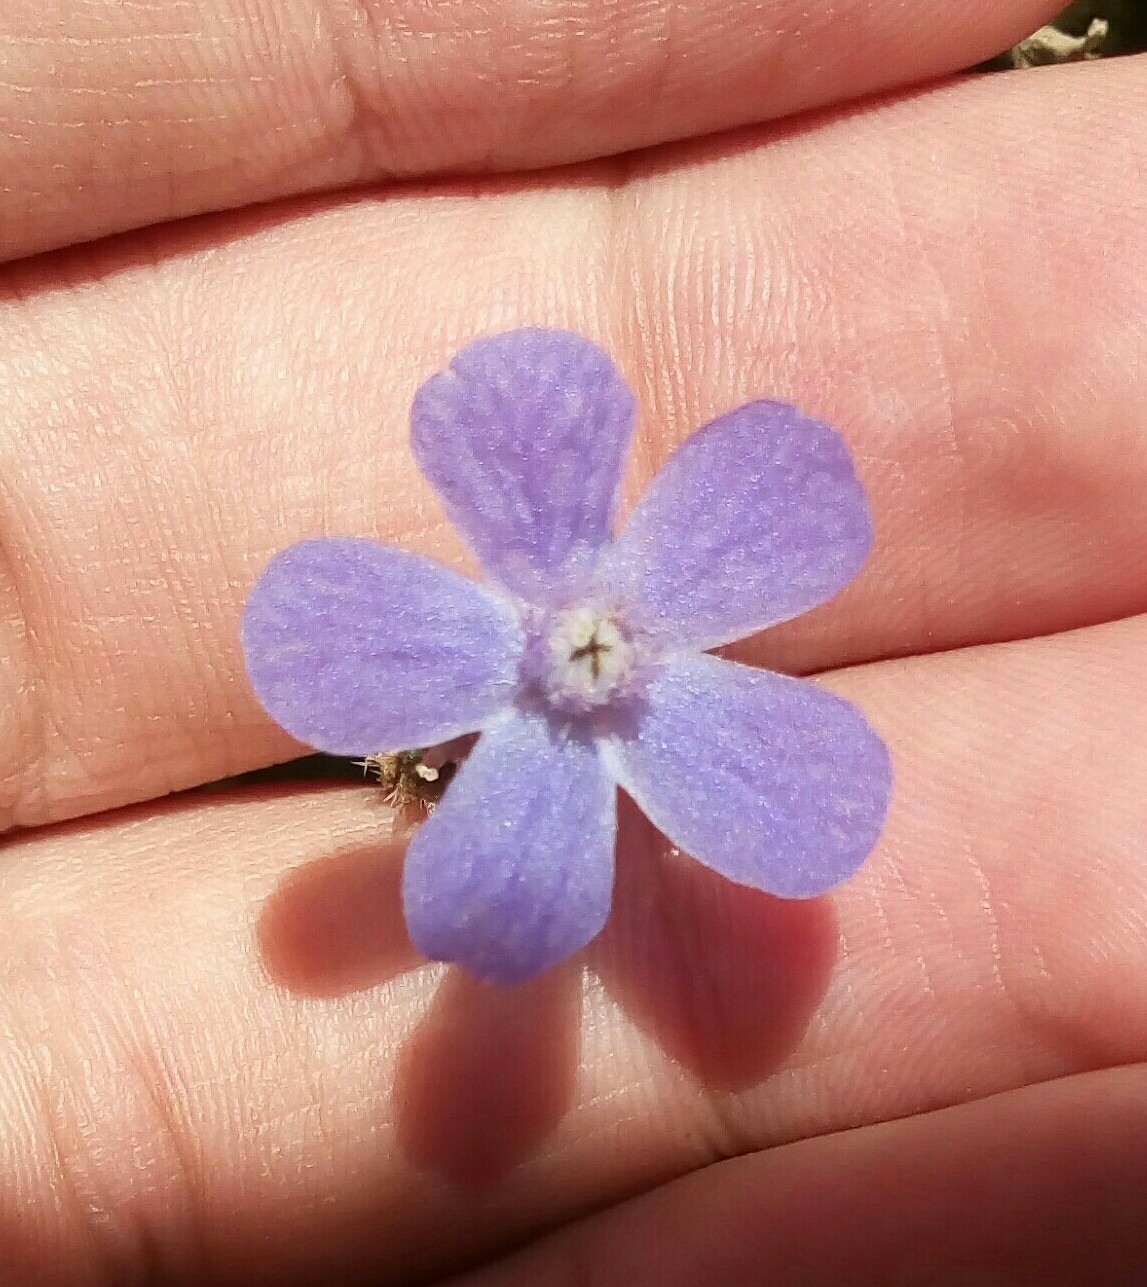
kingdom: Plantae
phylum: Tracheophyta
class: Magnoliopsida
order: Boraginales
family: Boraginaceae
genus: Anchusa
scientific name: Anchusa azurea
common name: Garden anchusa
